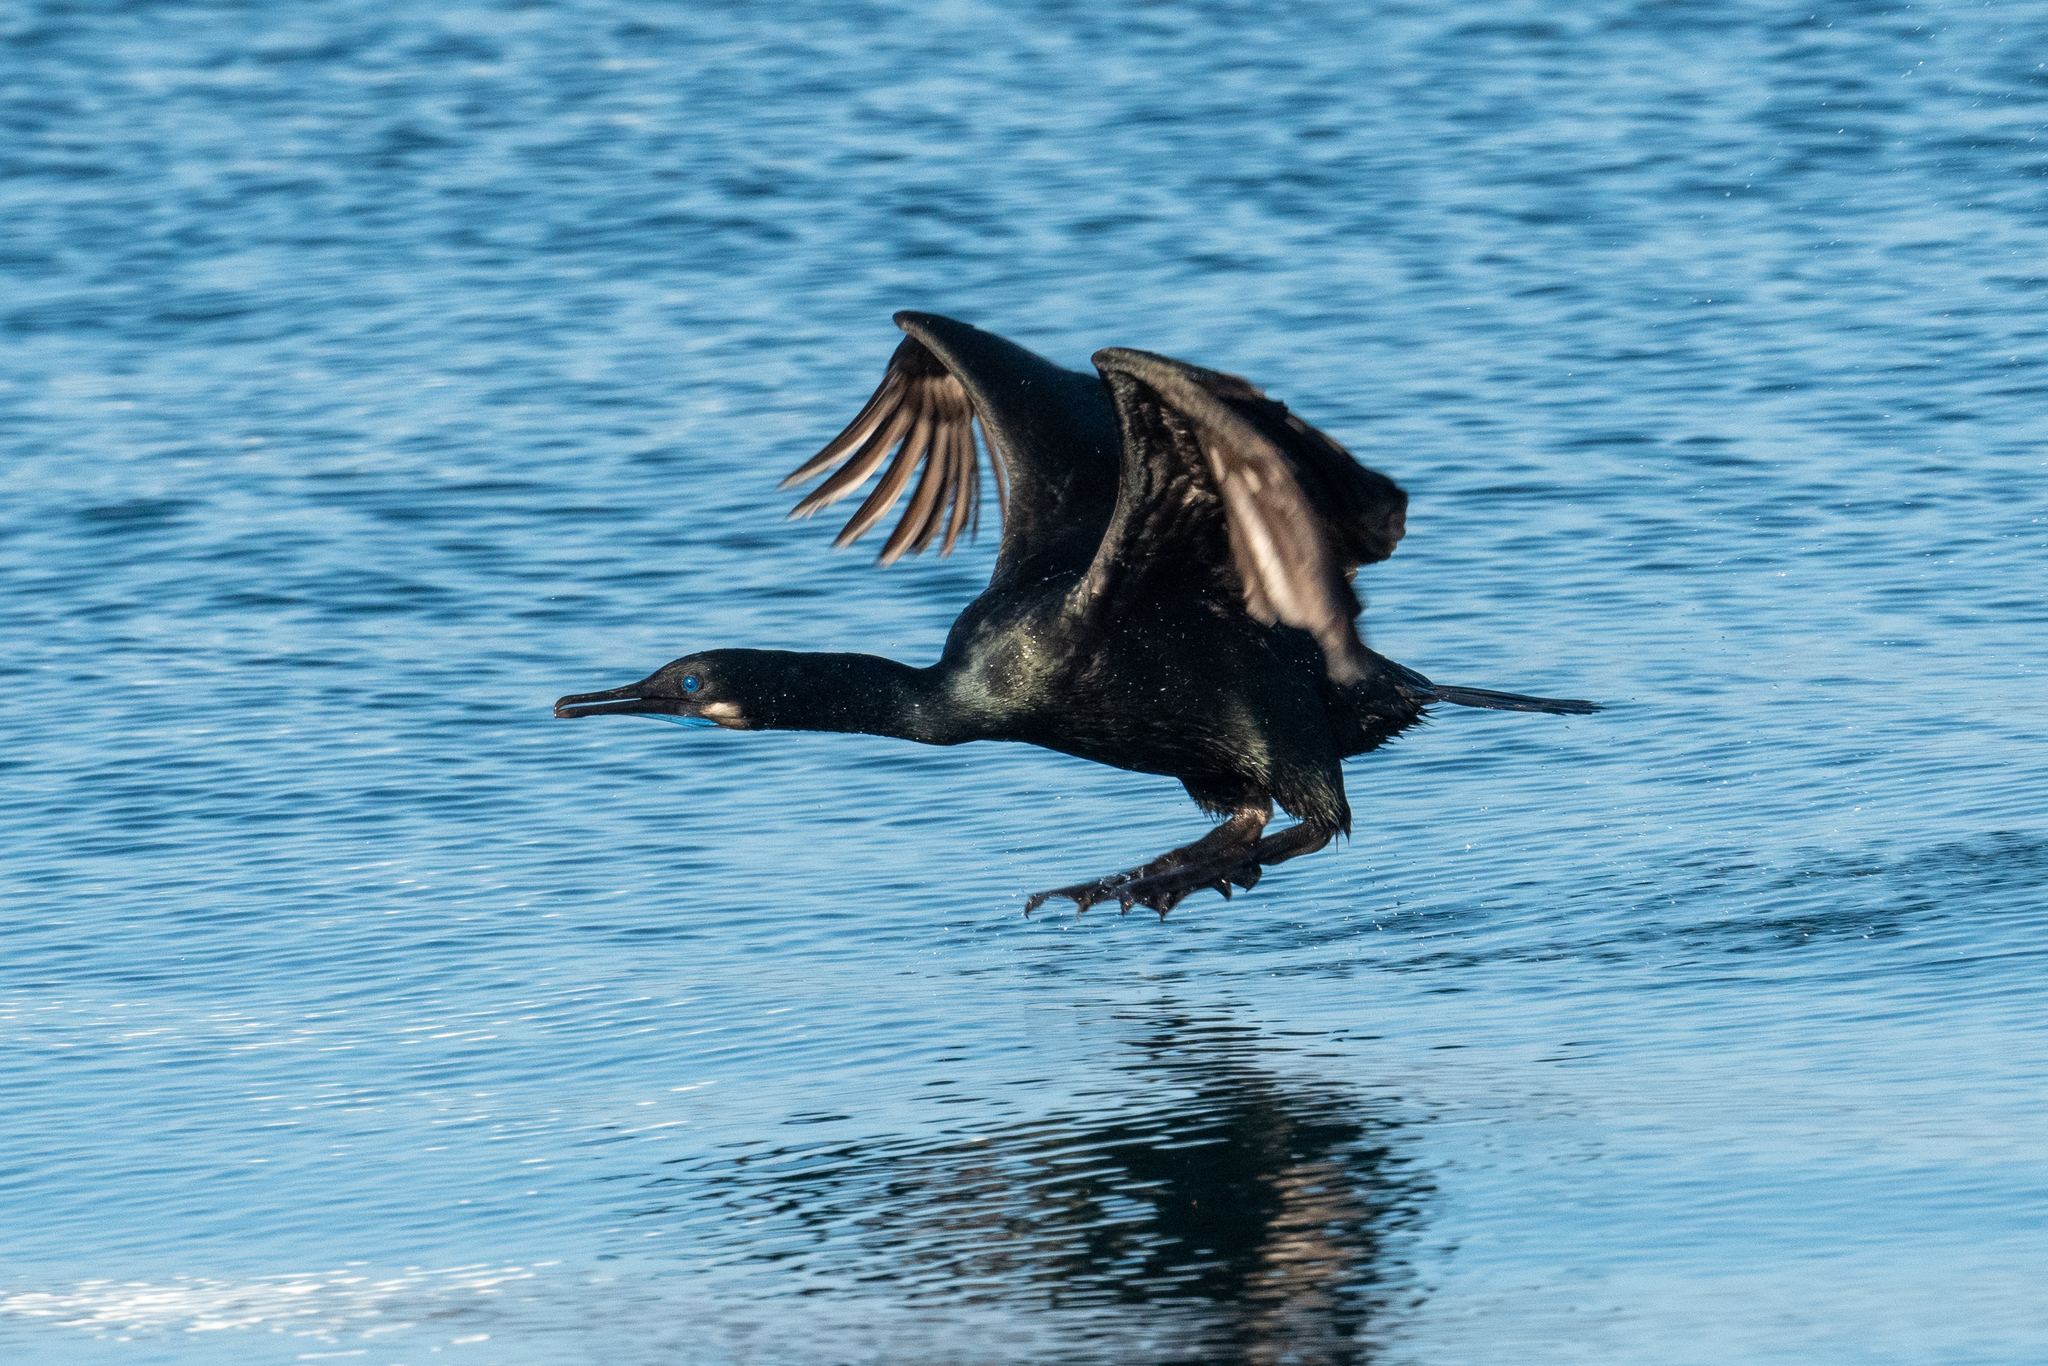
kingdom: Animalia
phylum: Chordata
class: Aves
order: Suliformes
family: Phalacrocoracidae
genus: Urile
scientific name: Urile penicillatus
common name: Brandt's cormorant
